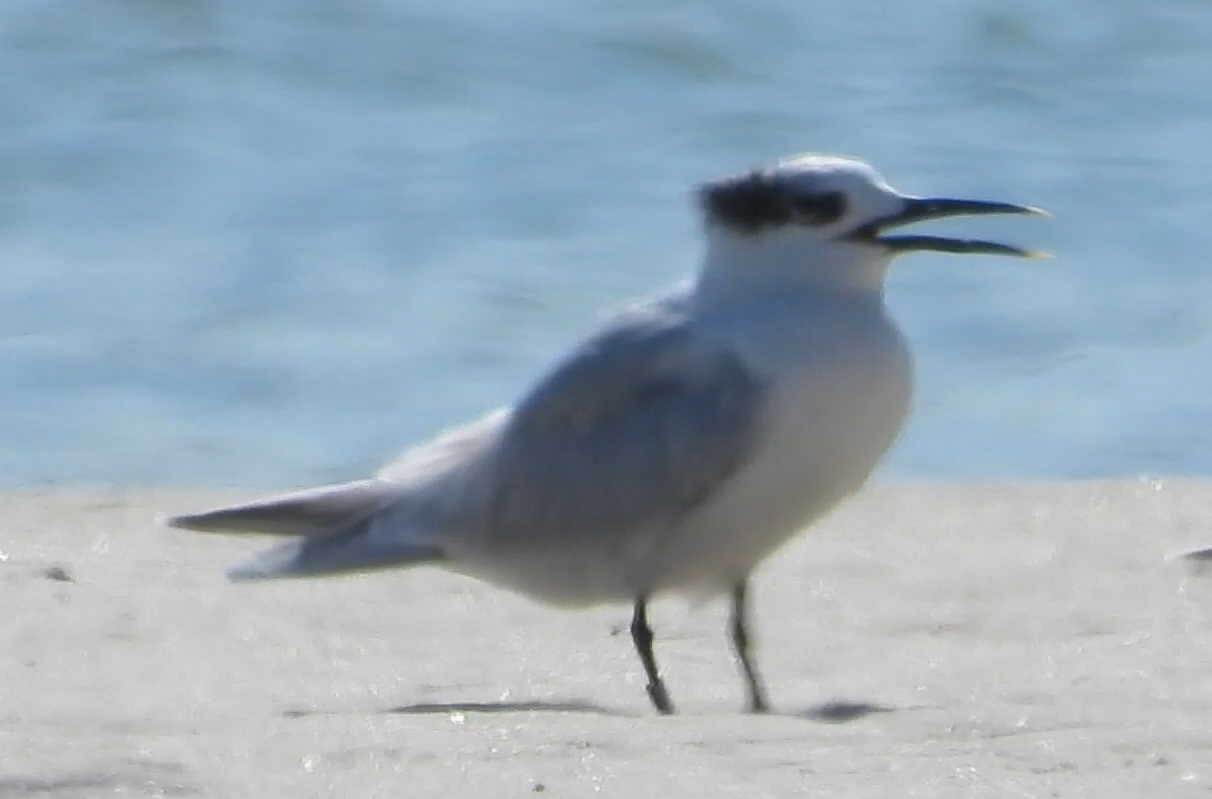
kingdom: Animalia
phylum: Chordata
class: Aves
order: Charadriiformes
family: Laridae
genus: Thalasseus
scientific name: Thalasseus sandvicensis
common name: Sandwich tern
